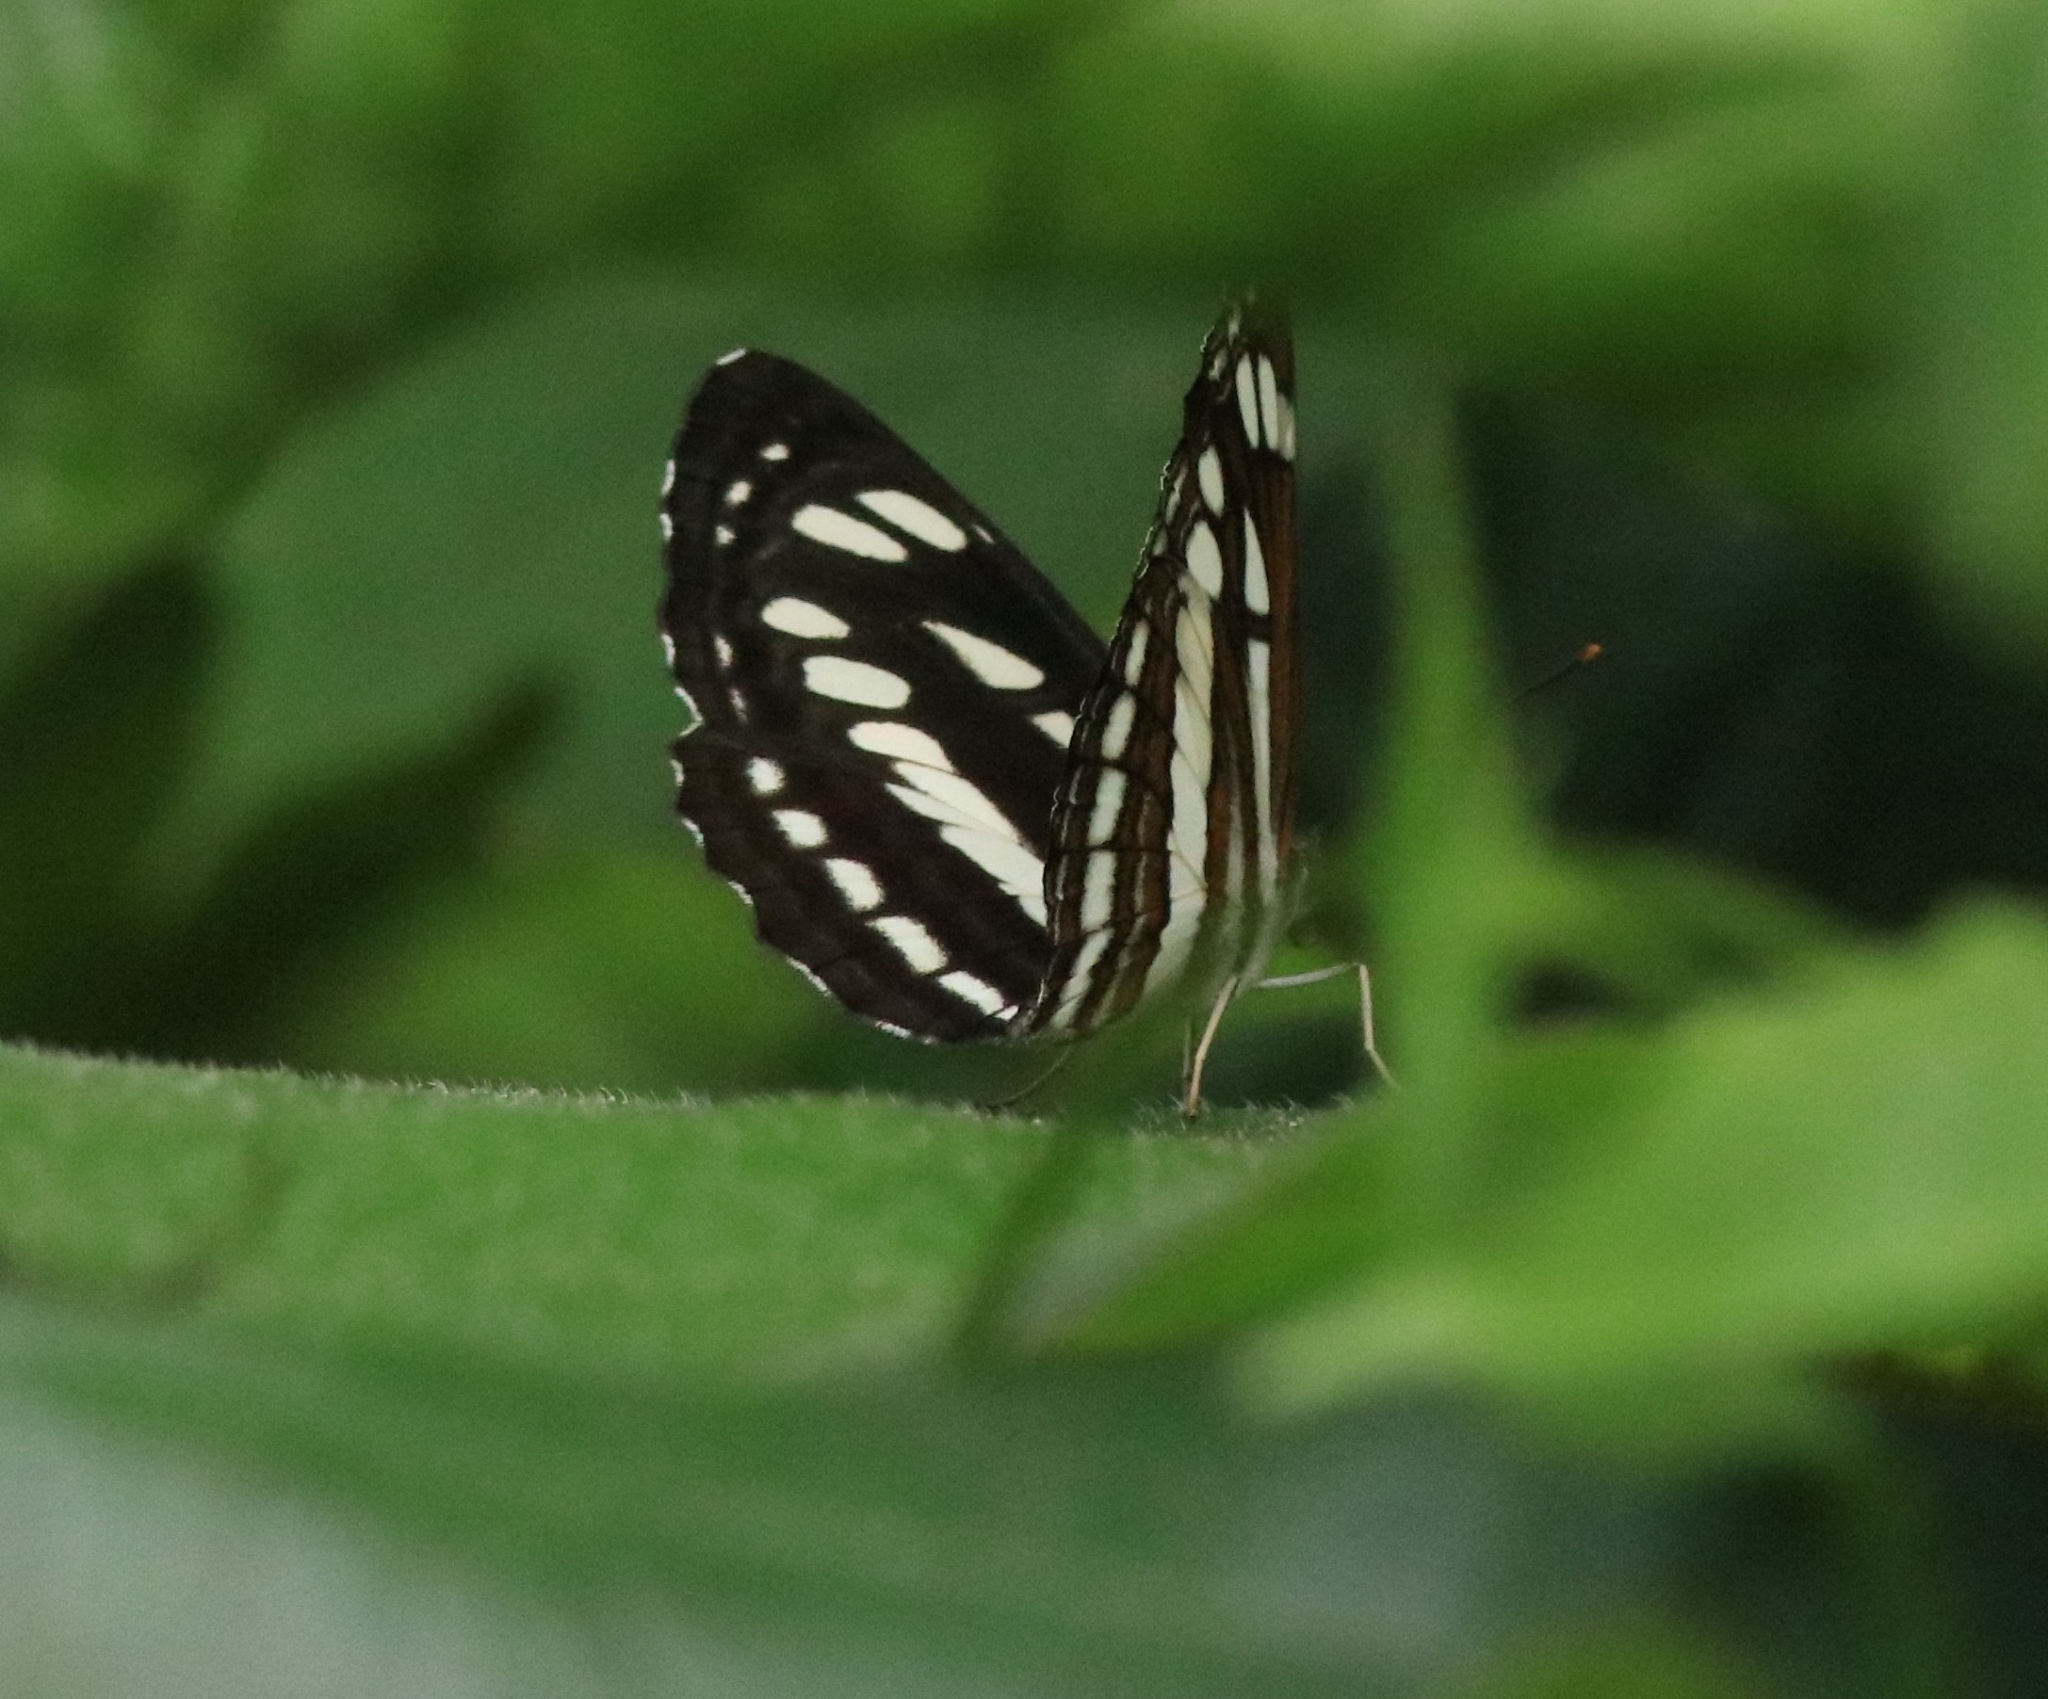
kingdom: Animalia
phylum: Arthropoda
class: Insecta
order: Lepidoptera
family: Nymphalidae
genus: Neptis
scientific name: Neptis hylas
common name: Common sailer
